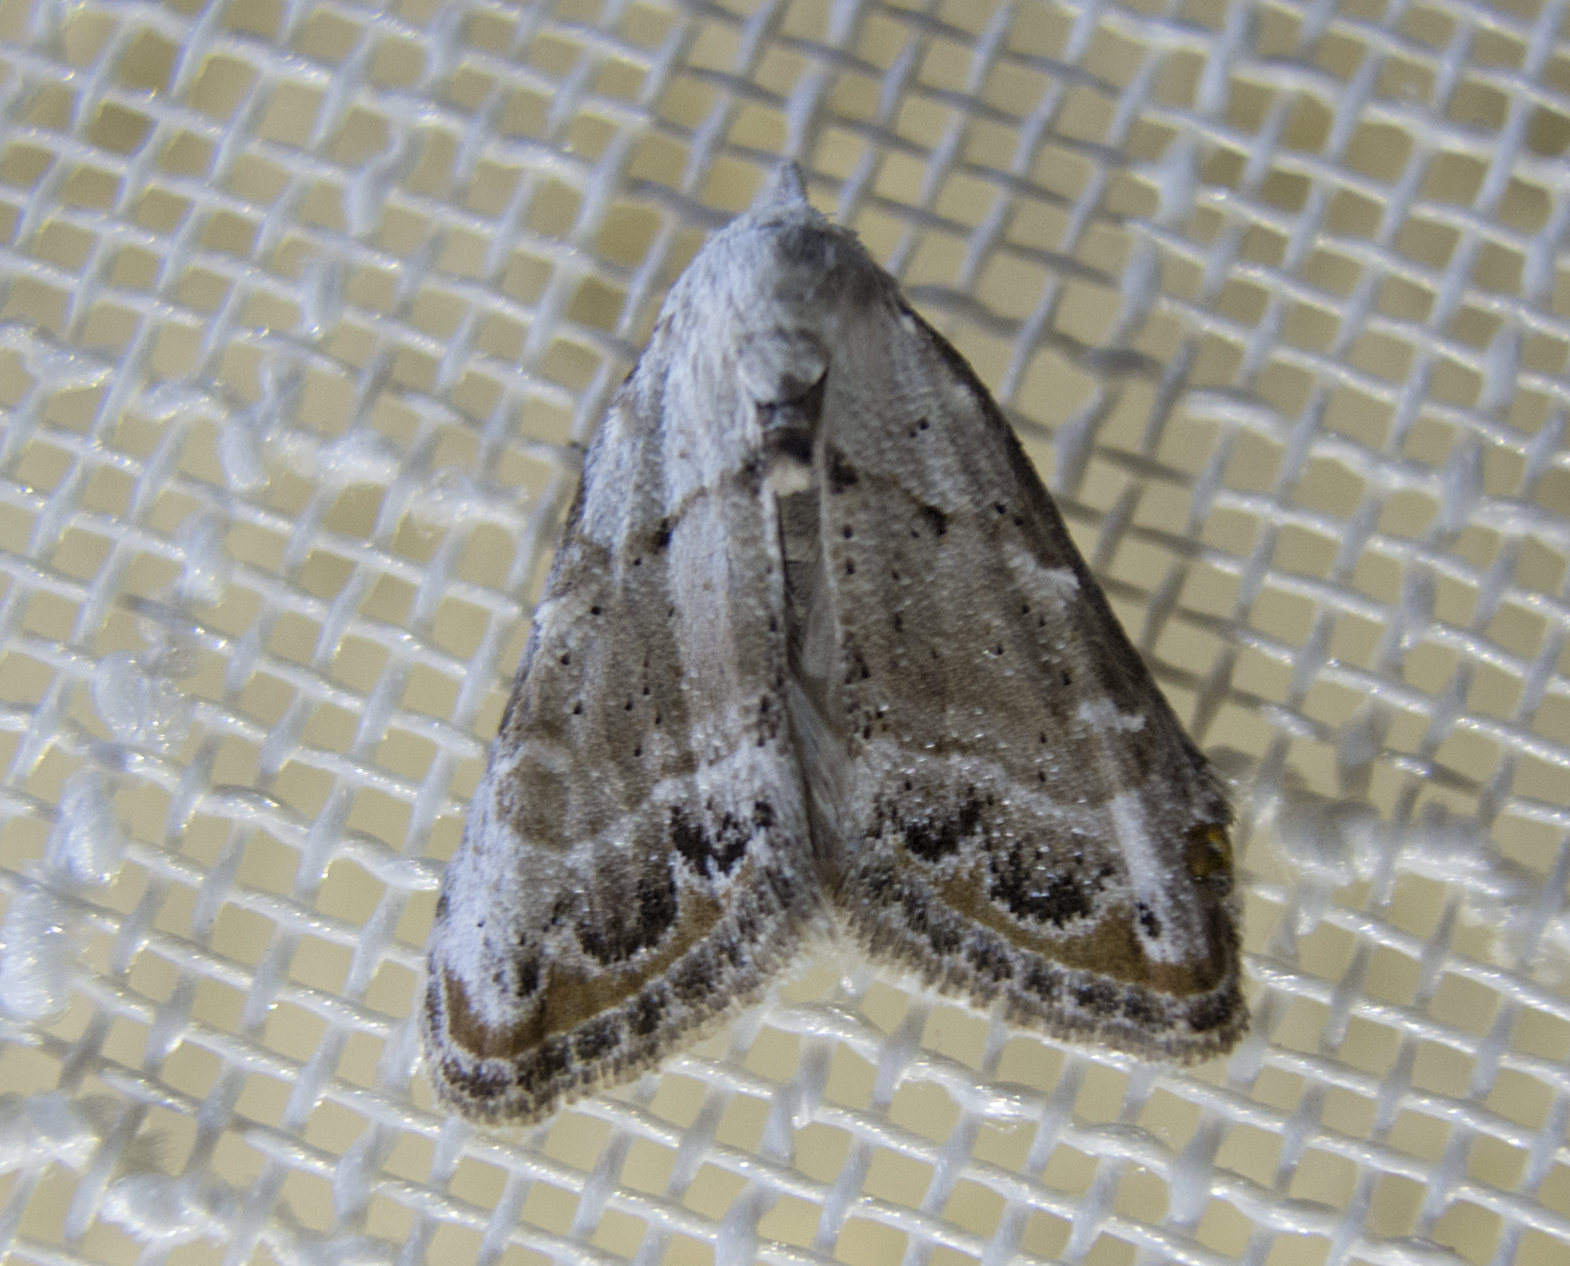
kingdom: Animalia
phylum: Arthropoda
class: Insecta
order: Lepidoptera
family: Nolidae
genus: Nola
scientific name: Nola chlamitulalis
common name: Jersey black arches
